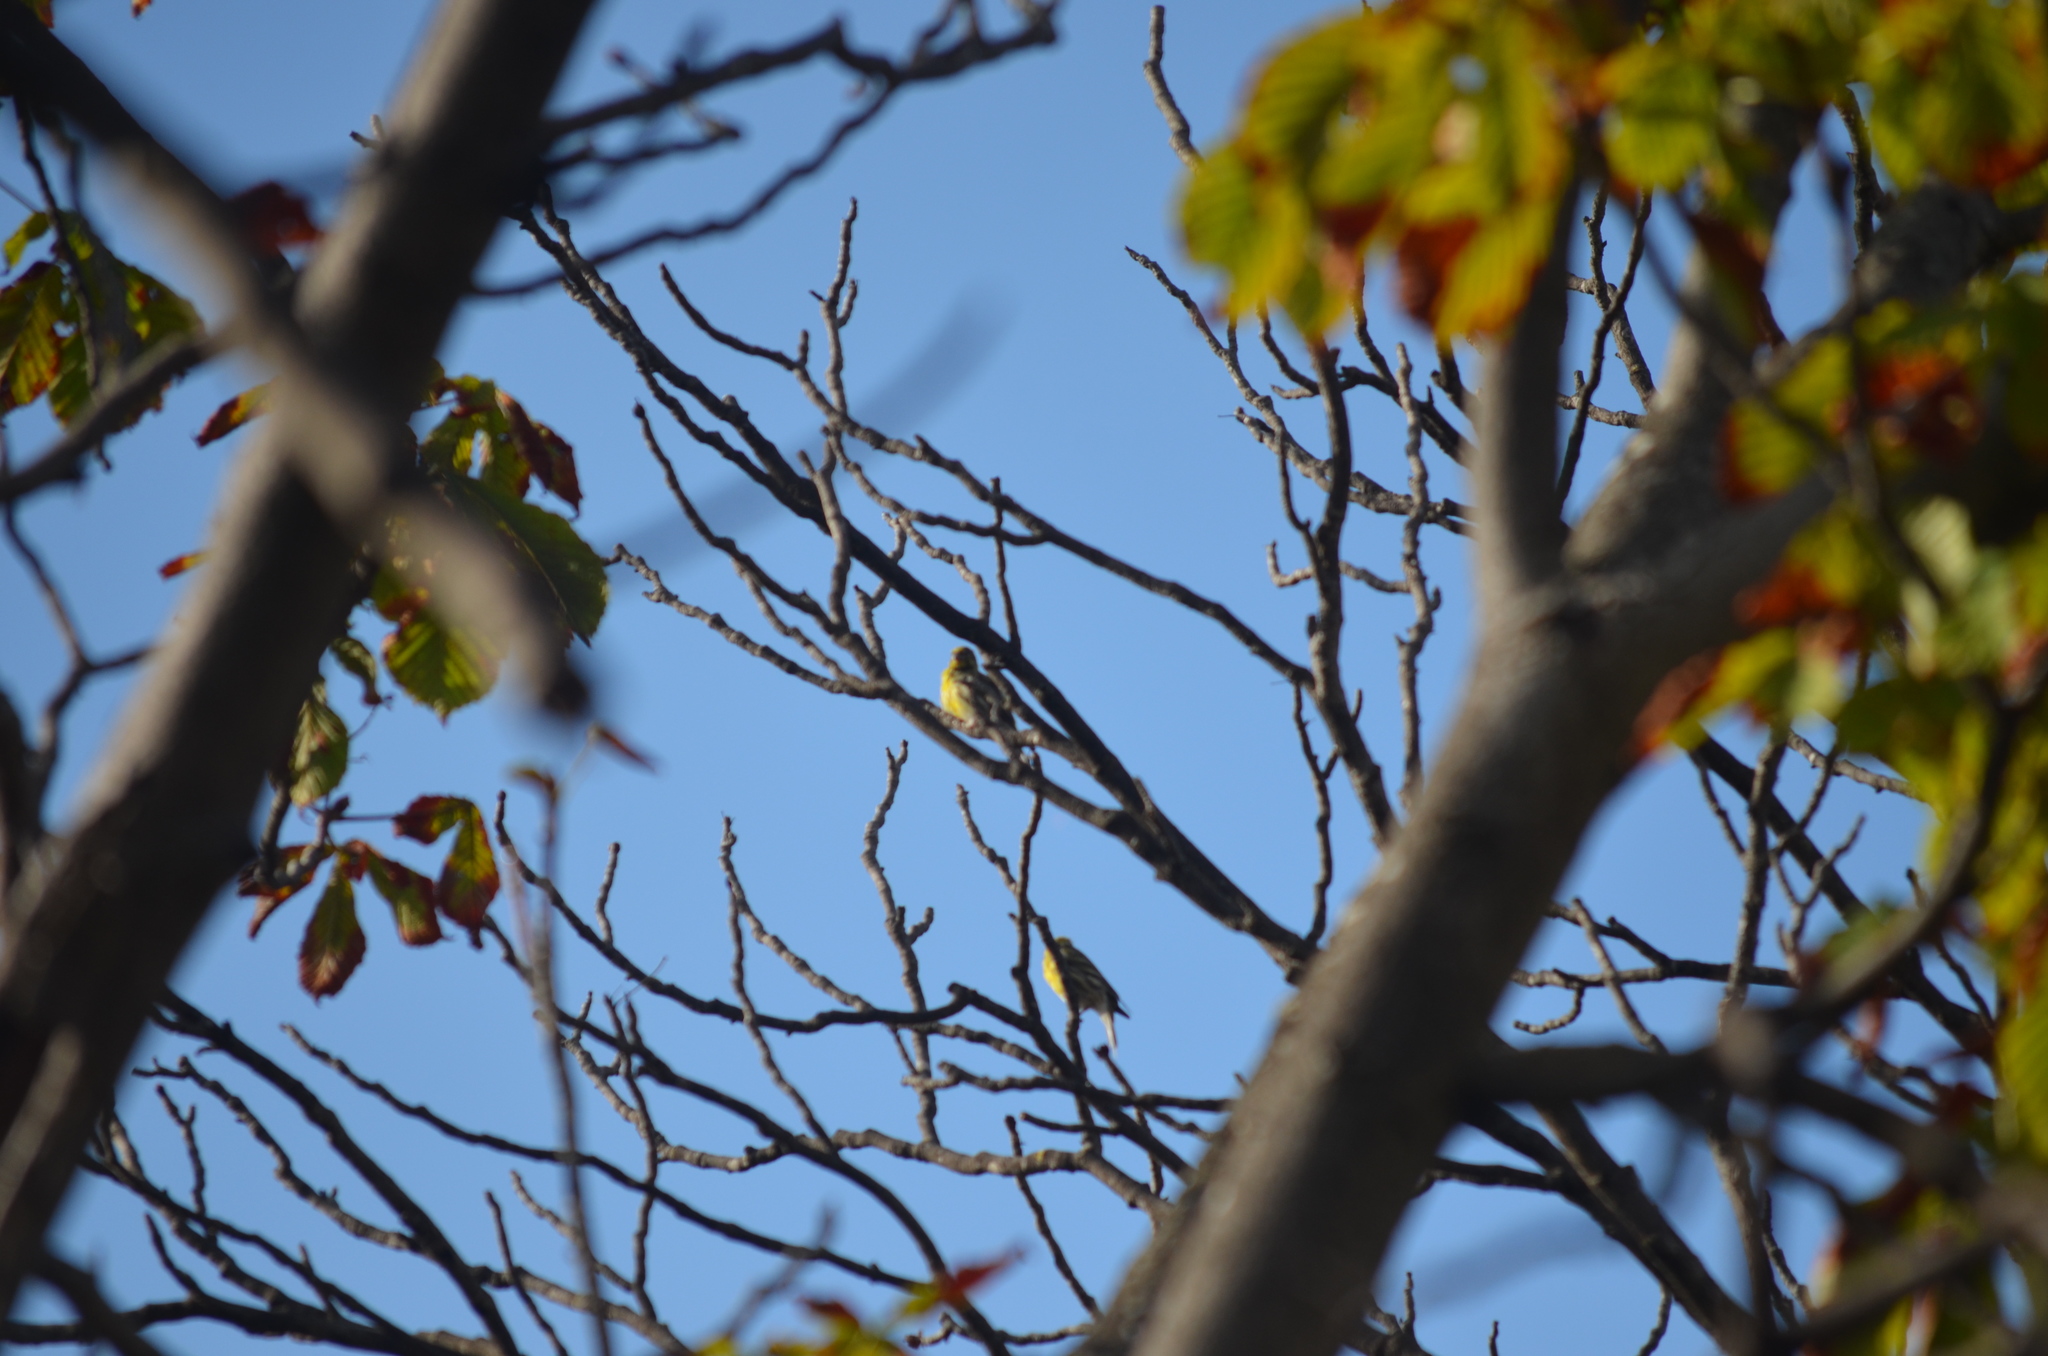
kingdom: Animalia
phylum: Chordata
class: Aves
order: Passeriformes
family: Fringillidae
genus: Serinus
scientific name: Serinus serinus
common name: European serin
